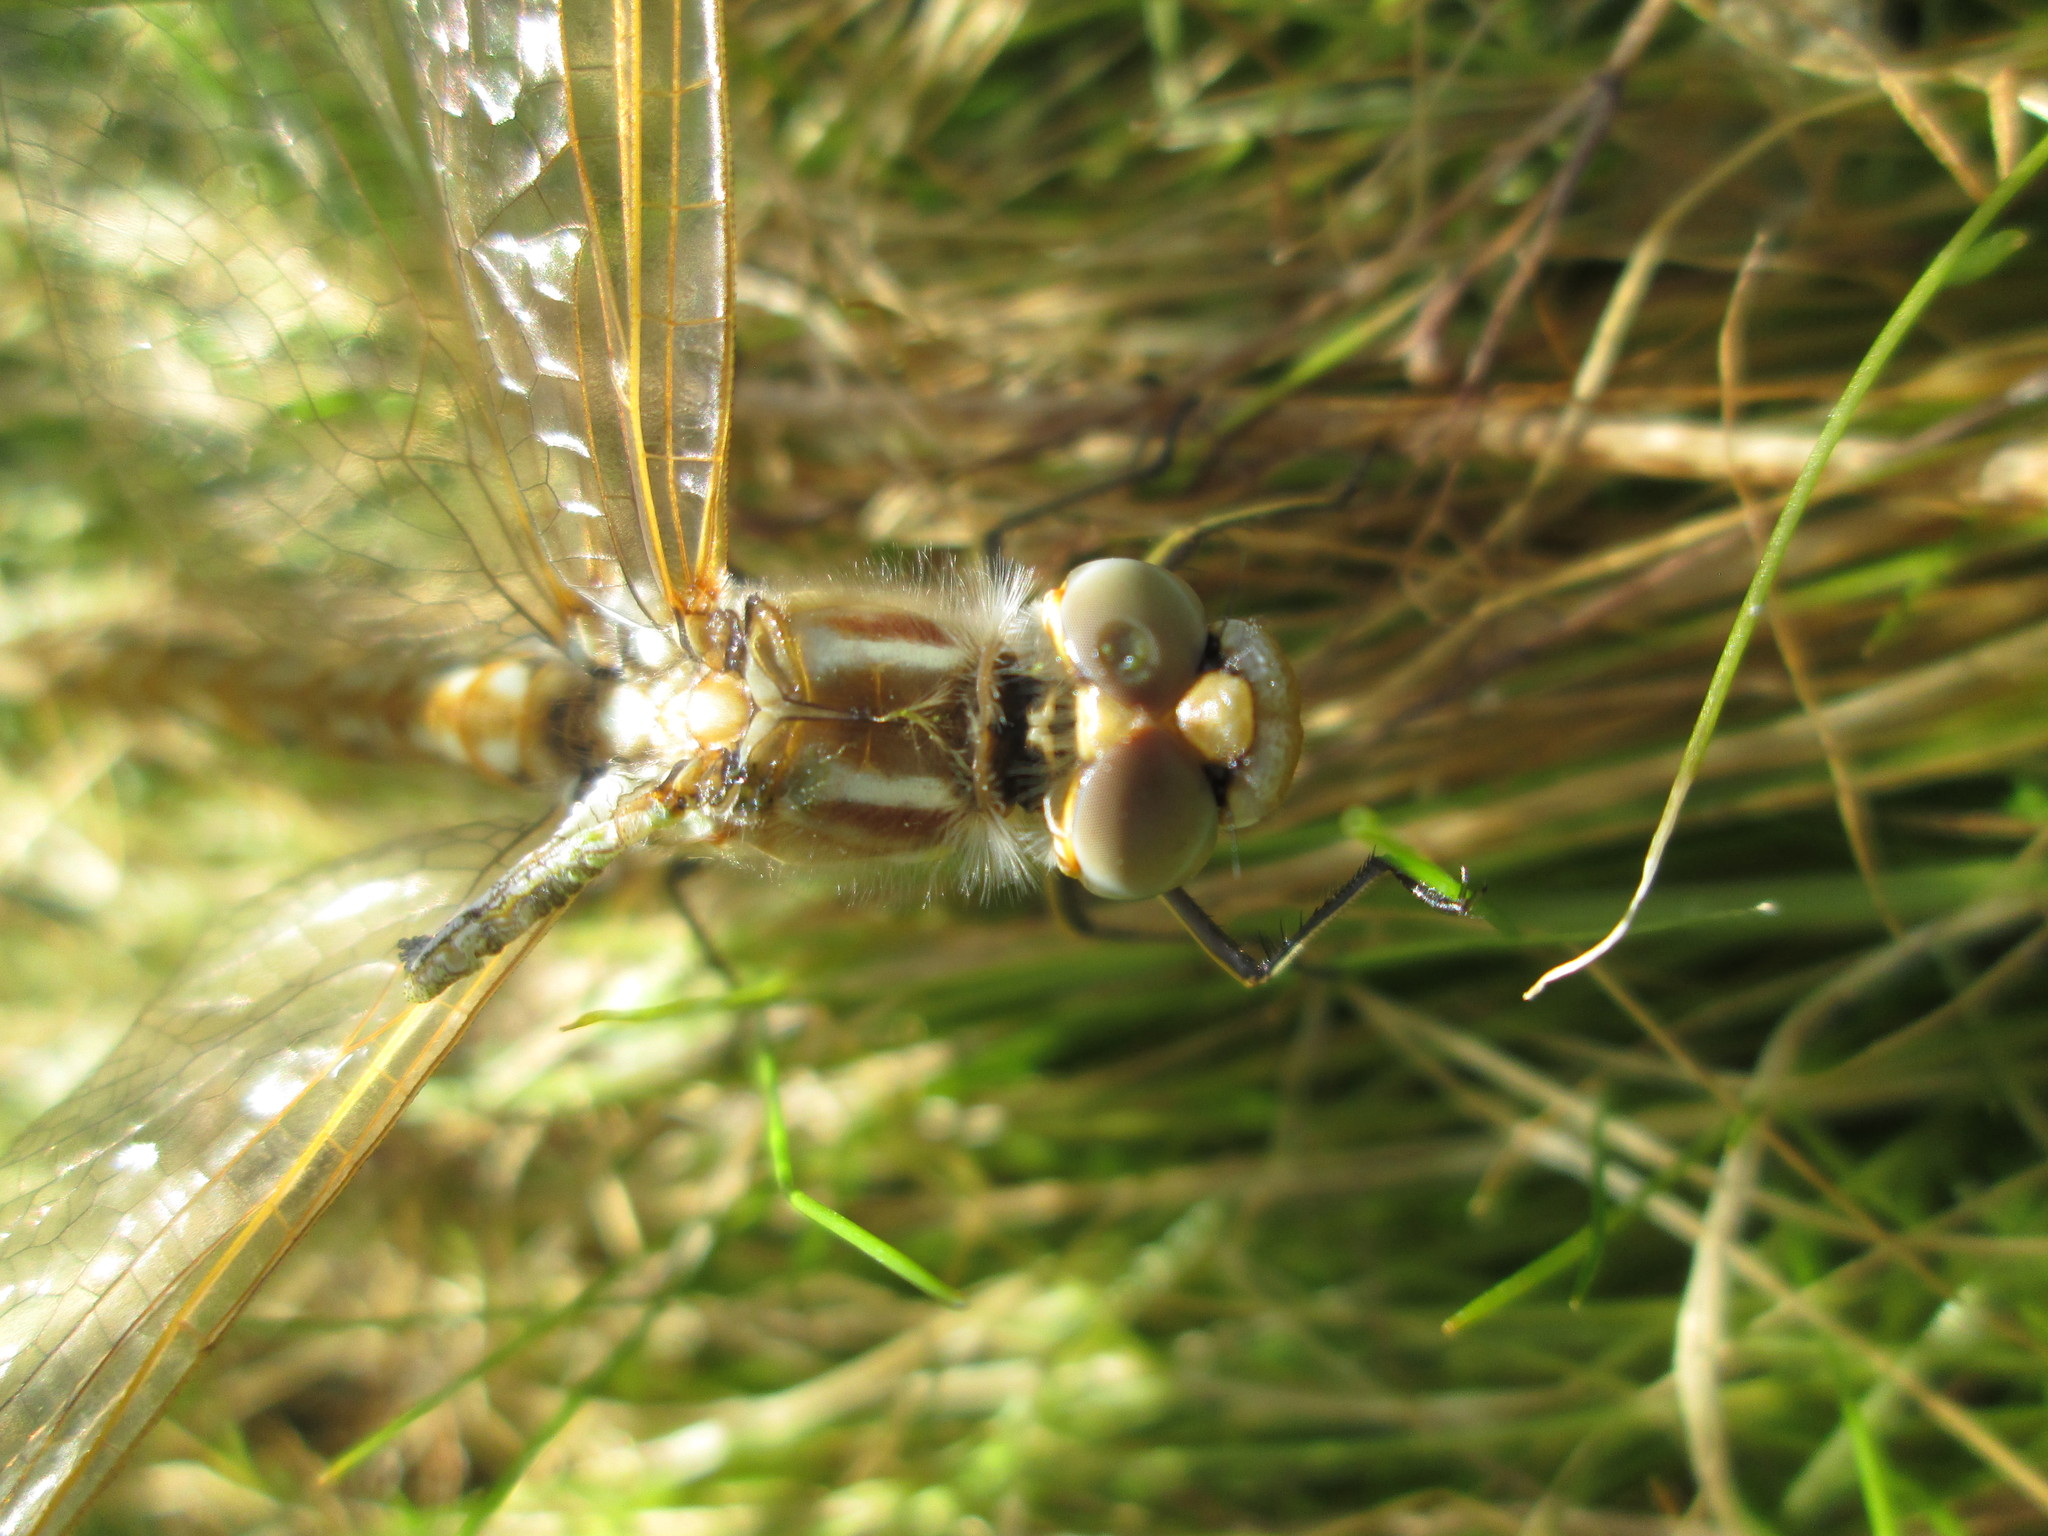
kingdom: Animalia
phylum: Arthropoda
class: Insecta
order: Odonata
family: Libellulidae
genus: Sympetrum
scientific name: Sympetrum corruptum
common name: Variegated meadowhawk
